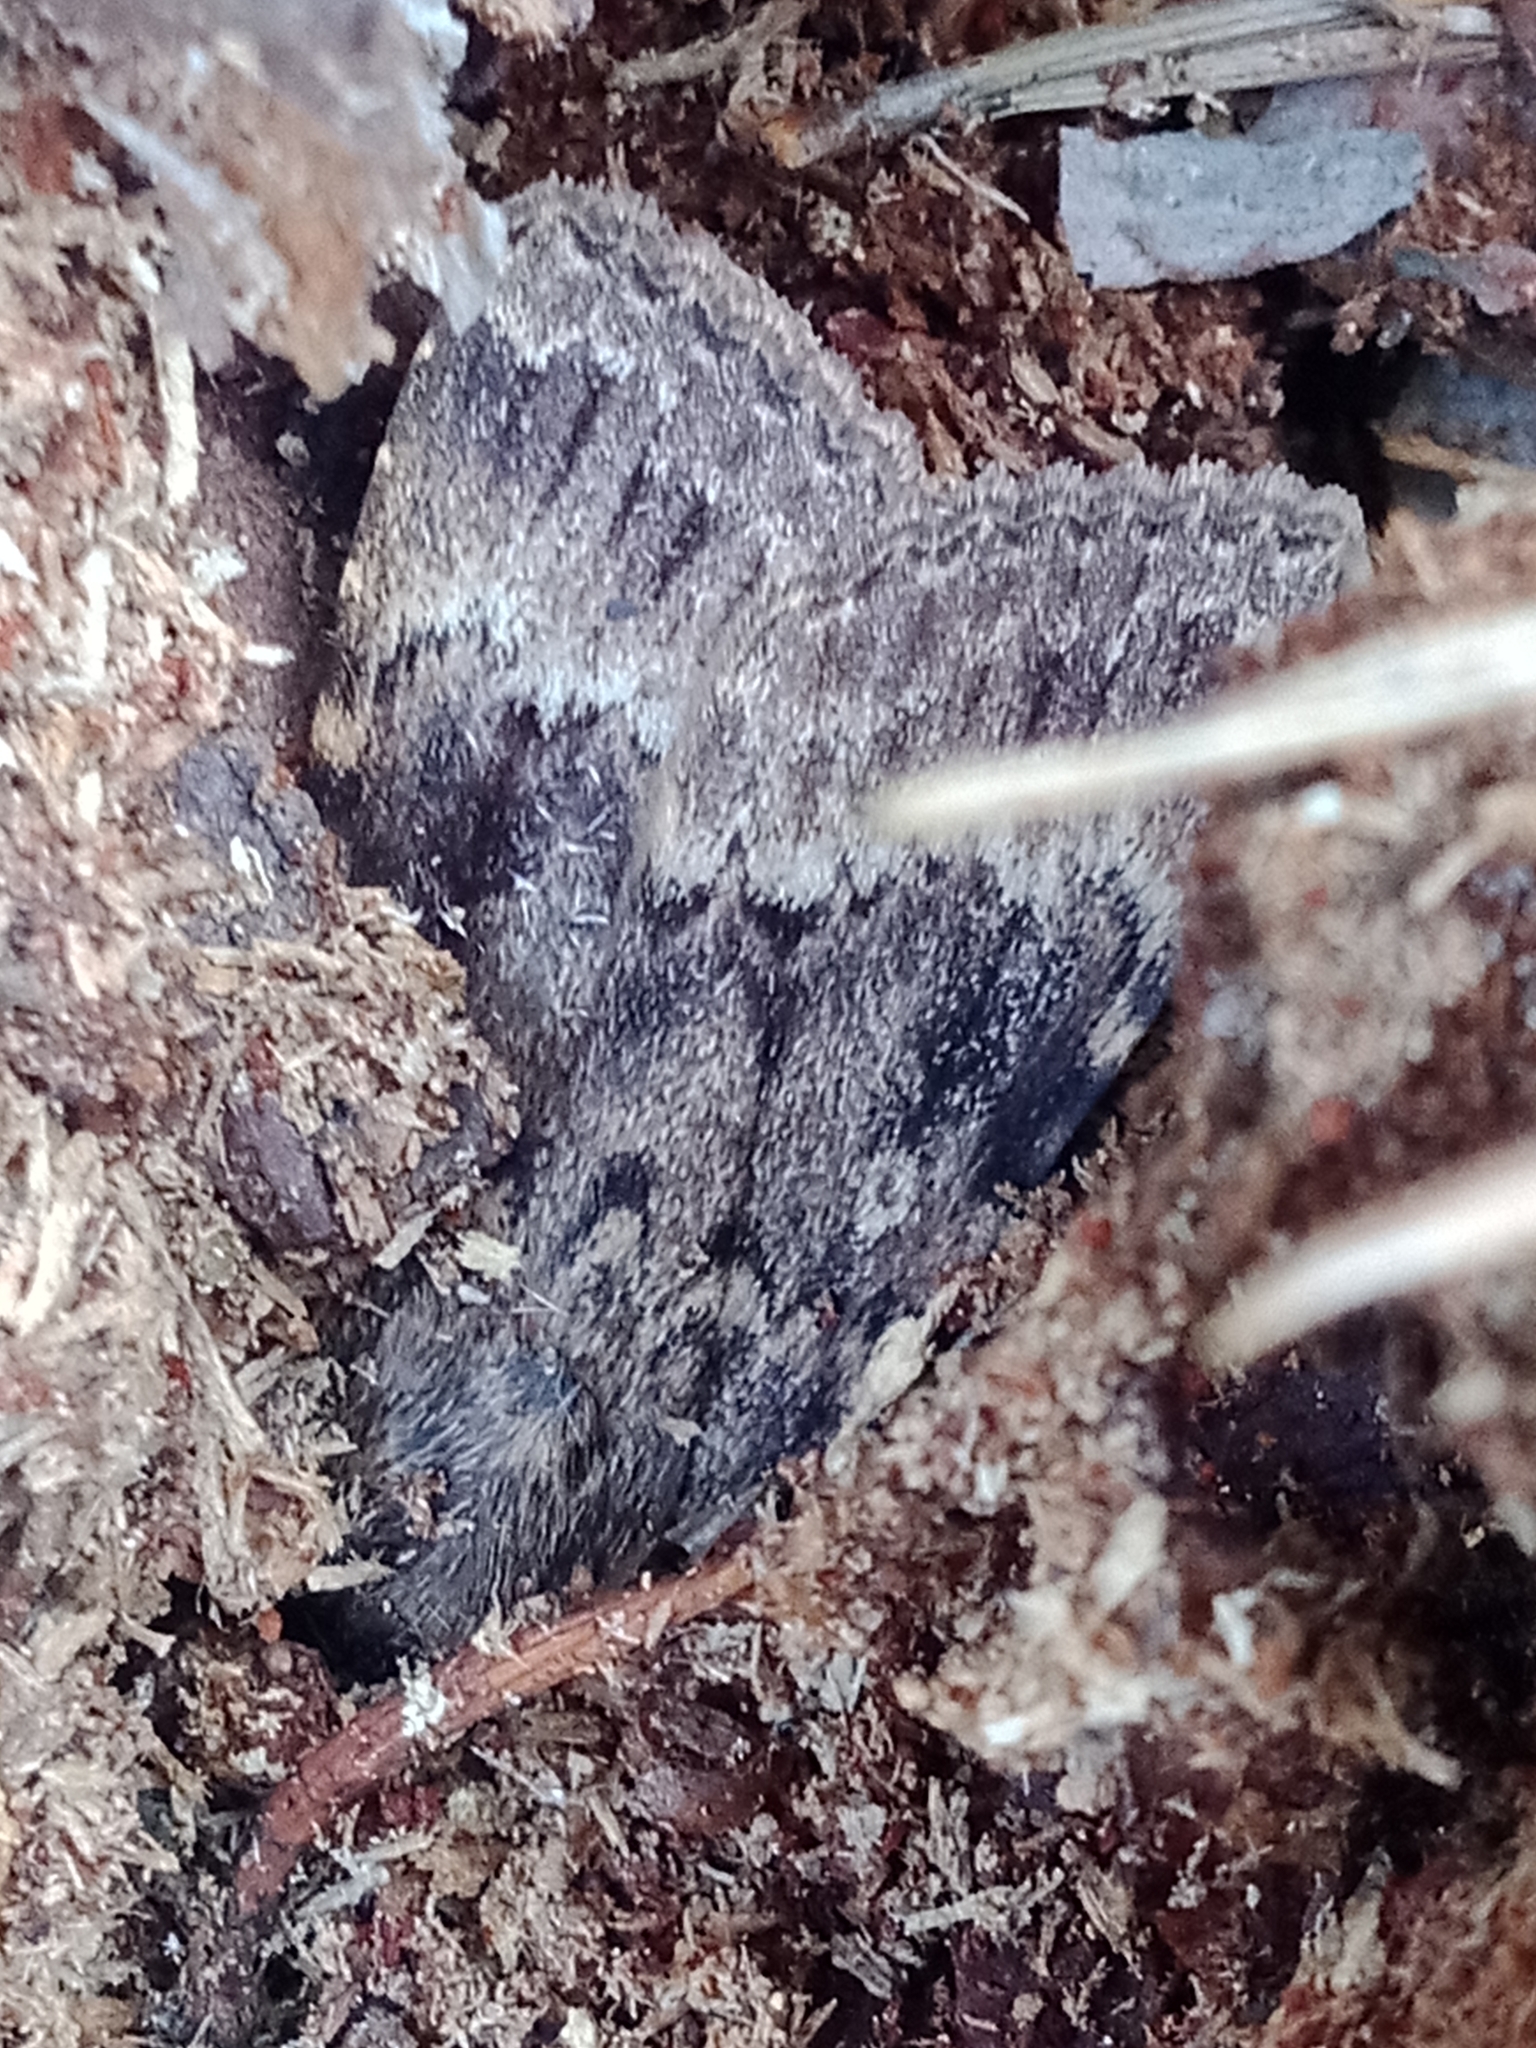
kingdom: Animalia
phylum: Arthropoda
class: Insecta
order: Lepidoptera
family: Noctuidae
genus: Amphipyra
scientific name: Amphipyra berbera
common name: Svensson's copper underwing
